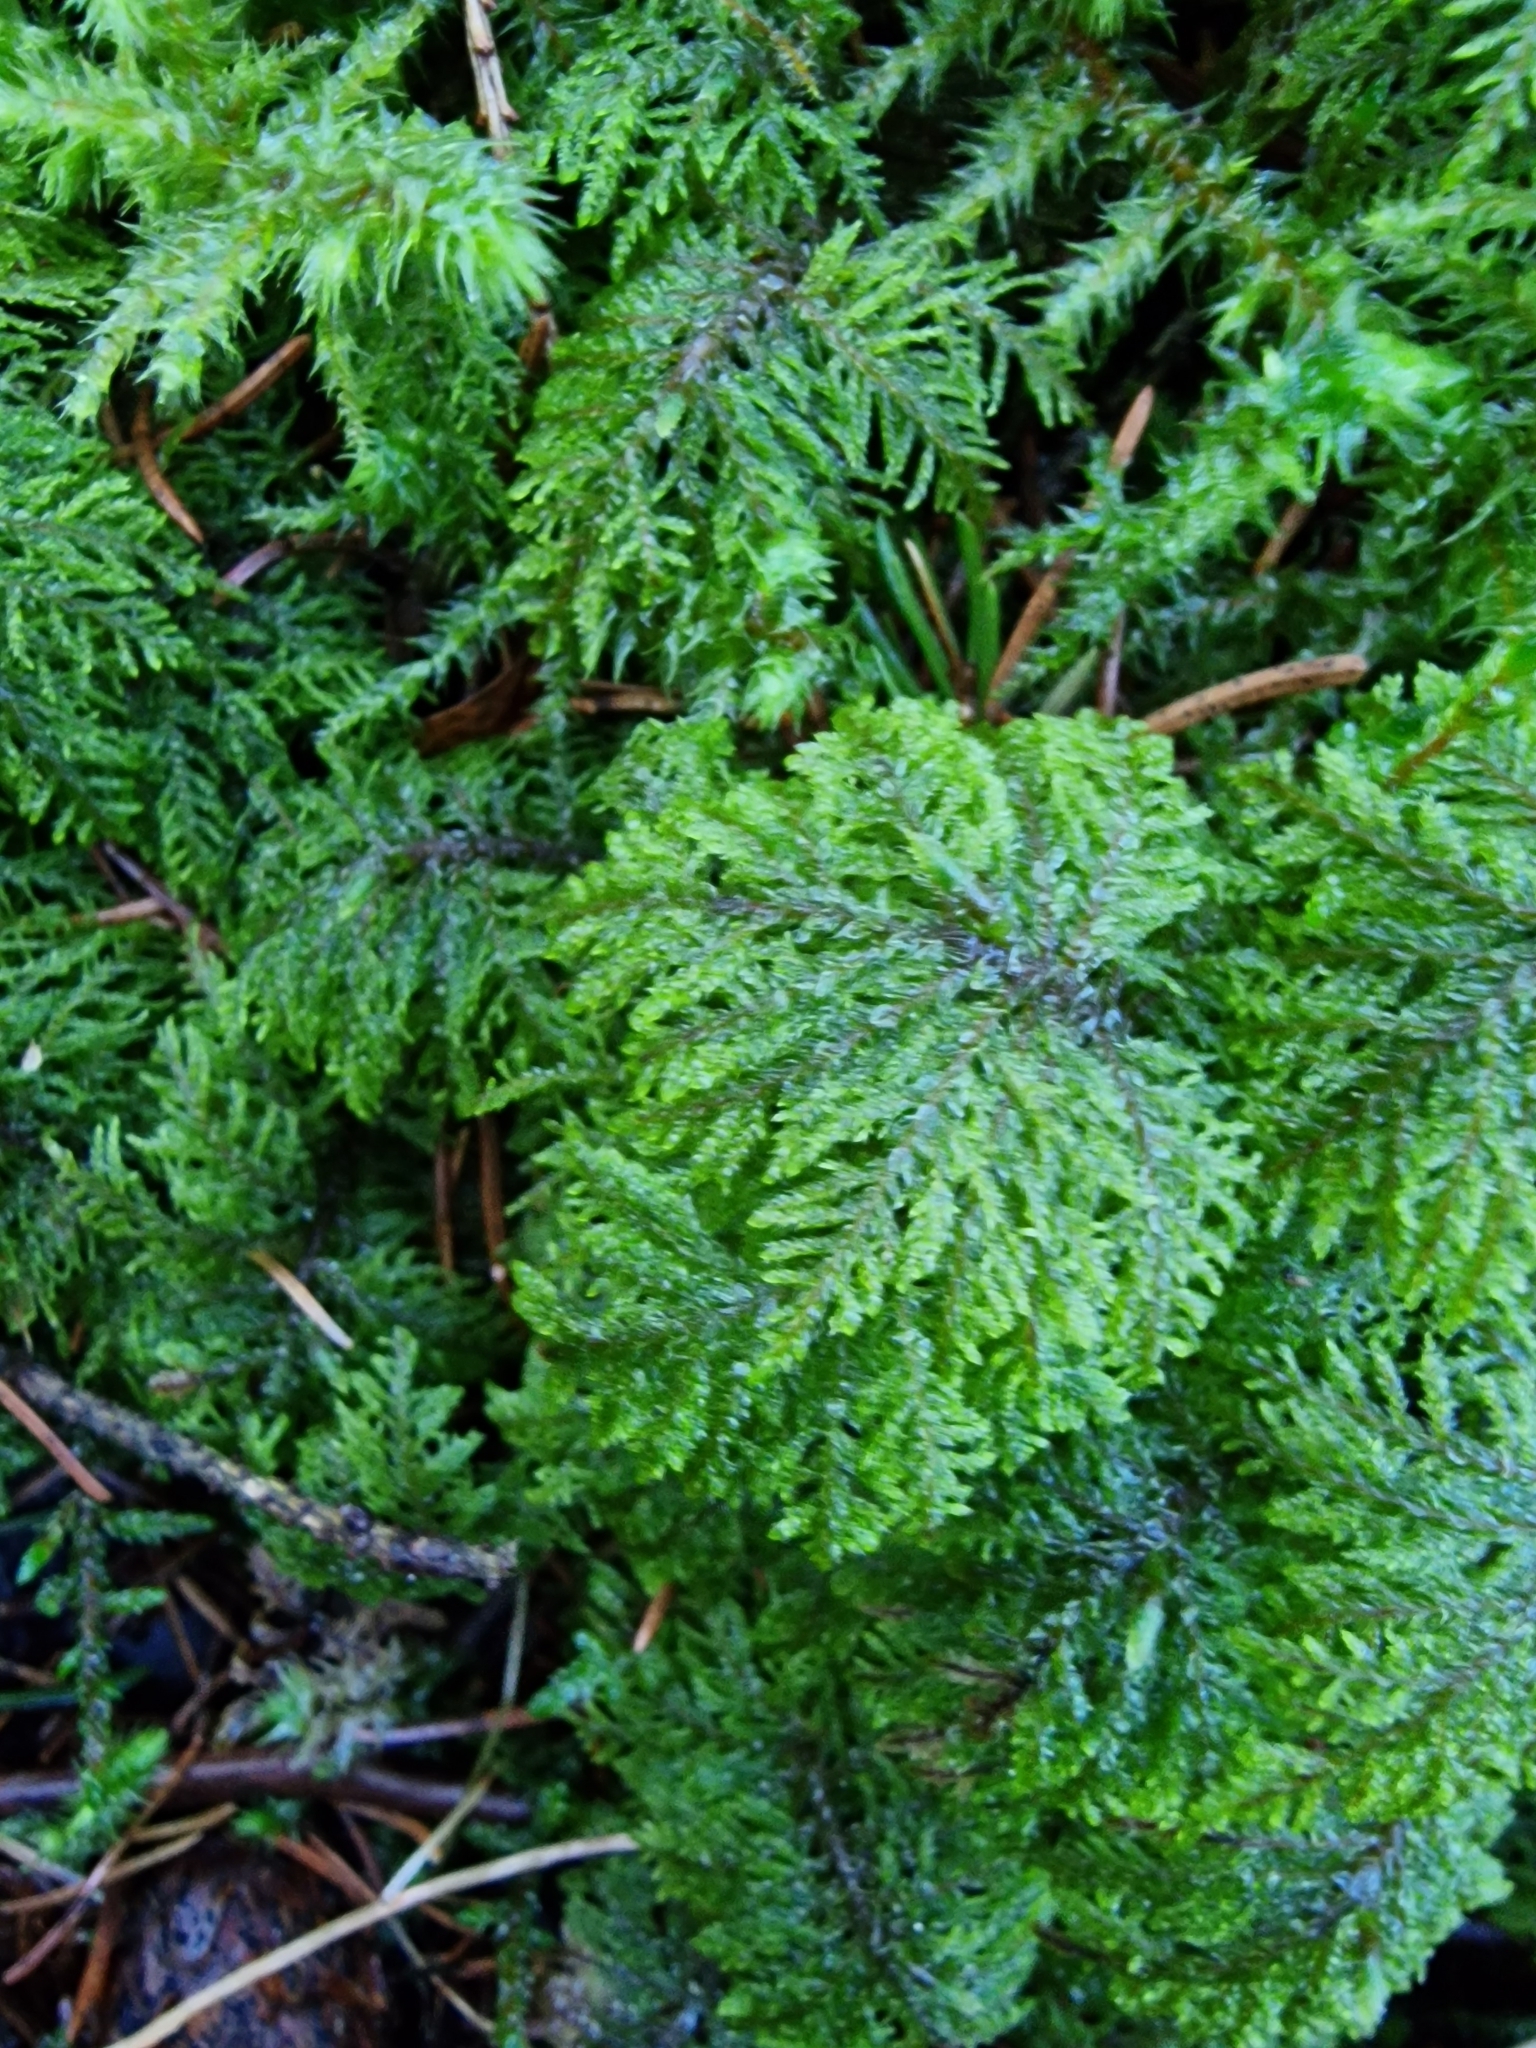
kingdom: Plantae
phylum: Bryophyta
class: Bryopsida
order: Hypnales
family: Hylocomiaceae
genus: Hylocomium
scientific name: Hylocomium splendens
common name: Stairstep moss
